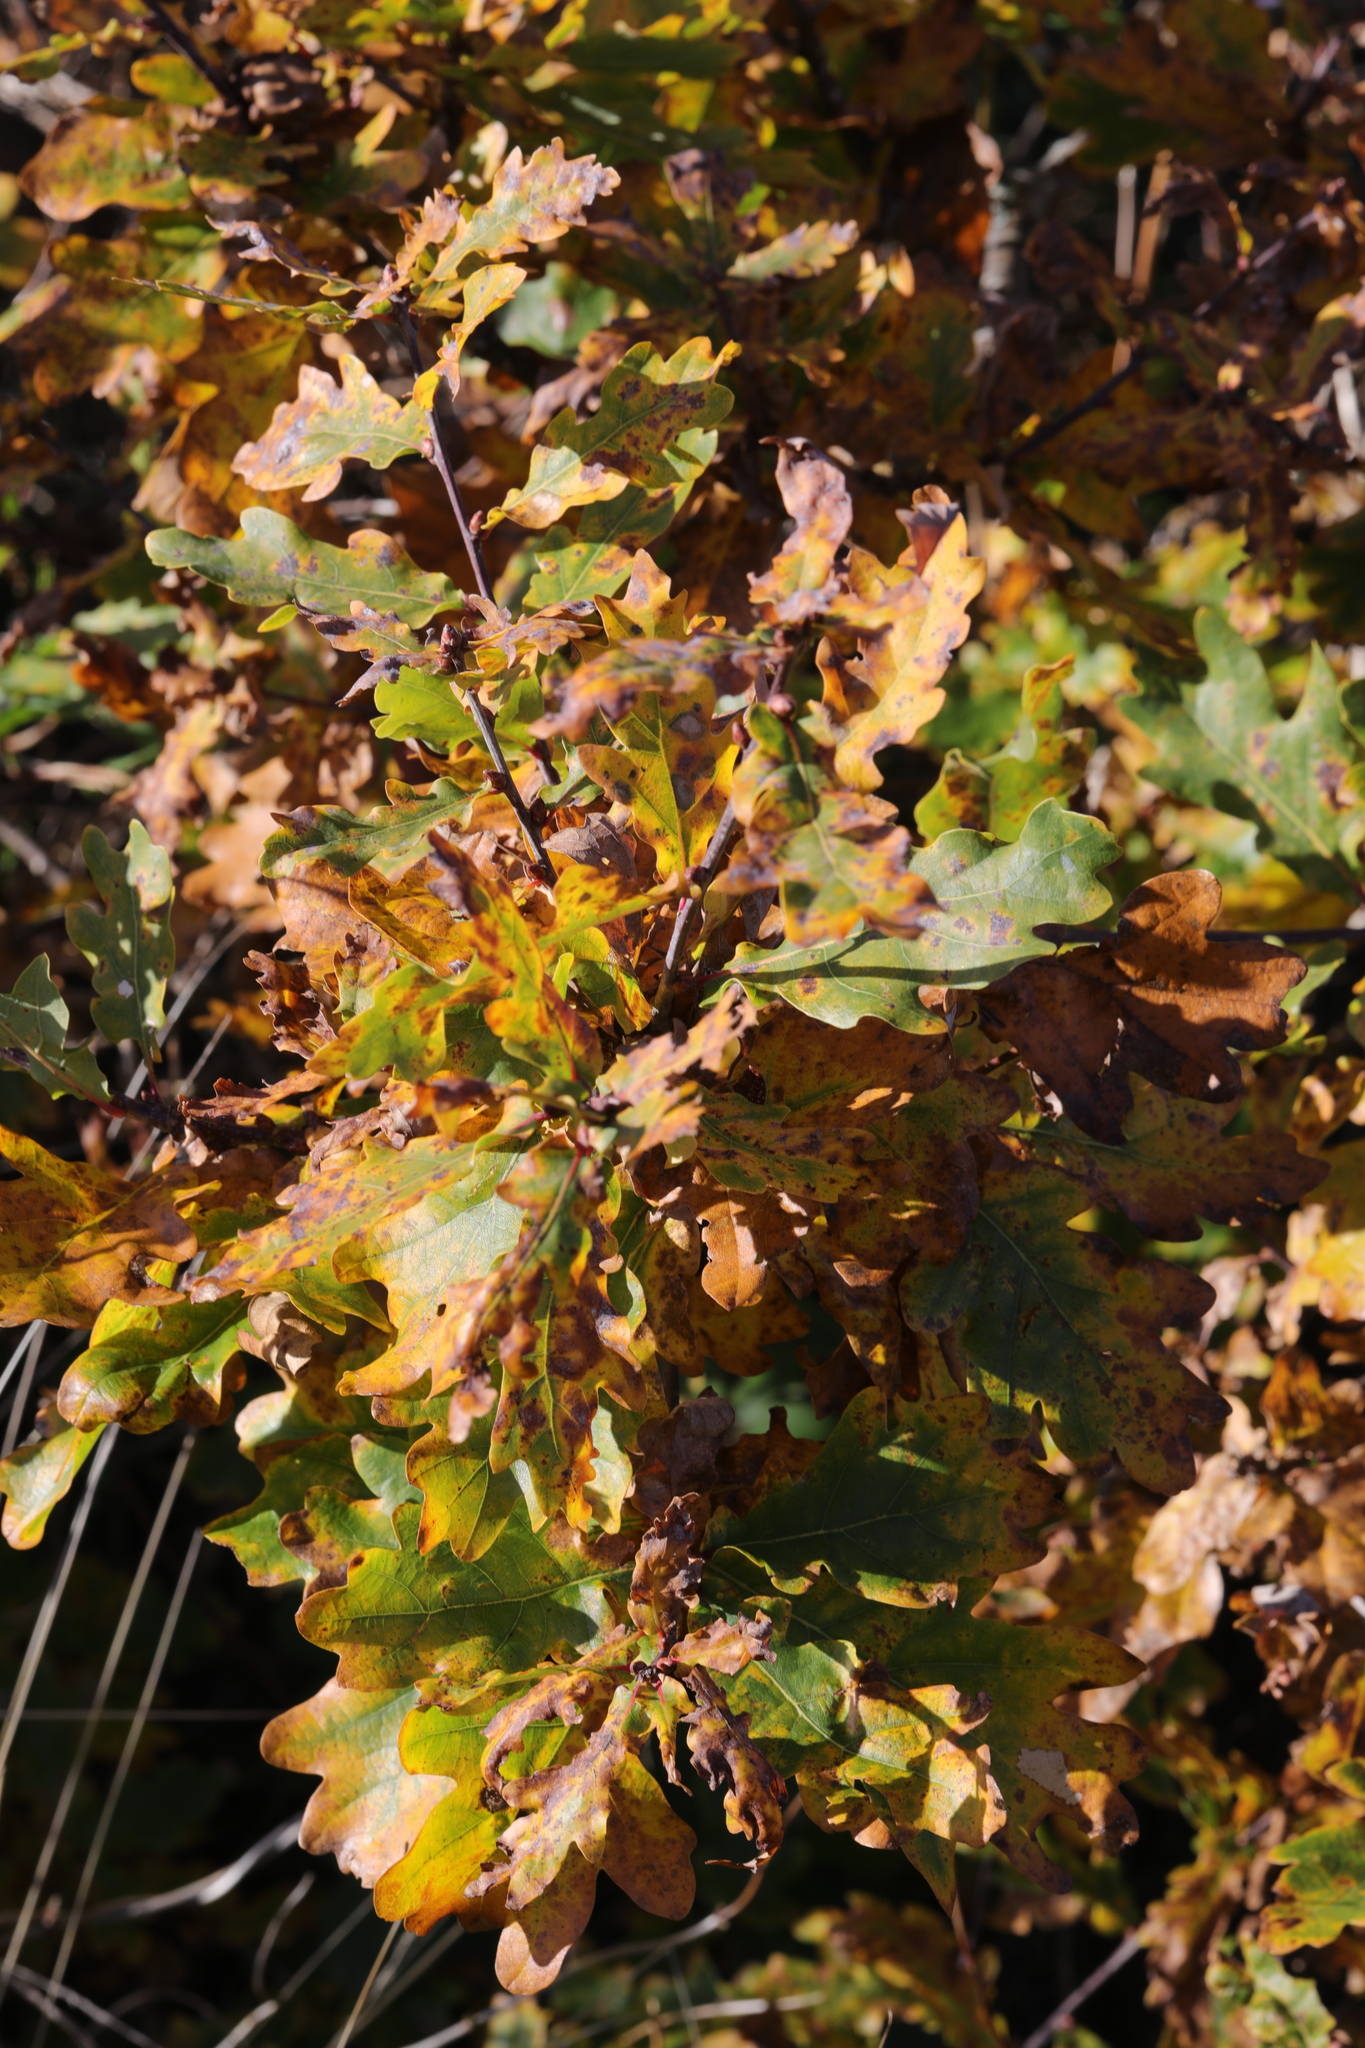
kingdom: Plantae
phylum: Tracheophyta
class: Magnoliopsida
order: Fagales
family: Fagaceae
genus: Quercus
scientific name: Quercus robur
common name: Pedunculate oak
